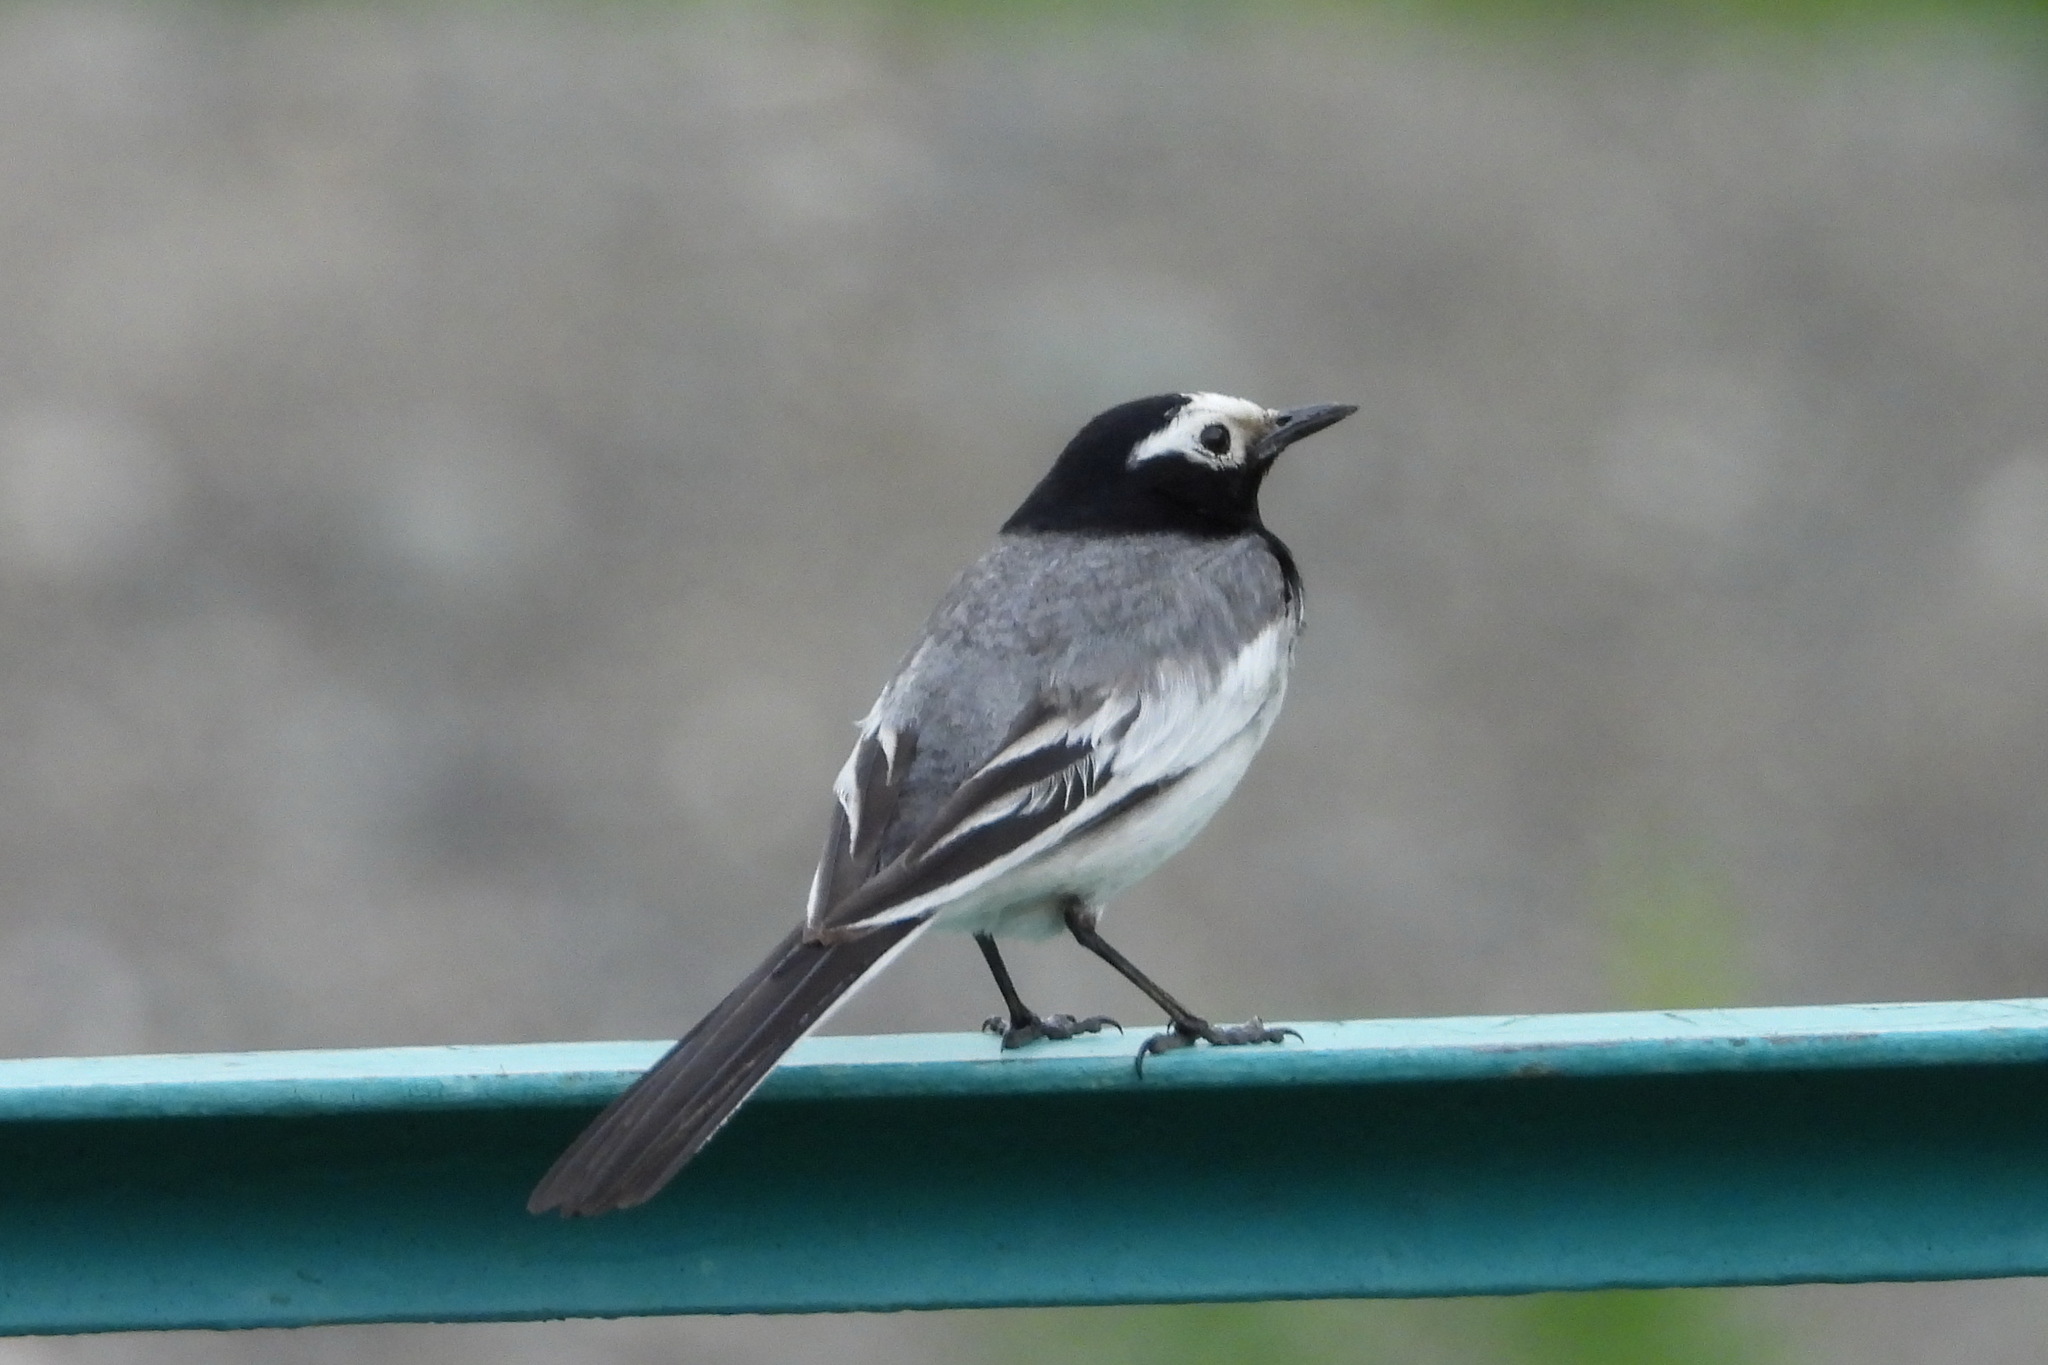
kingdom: Animalia
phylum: Chordata
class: Aves
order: Passeriformes
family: Motacillidae
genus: Motacilla
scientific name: Motacilla alba
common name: White wagtail
